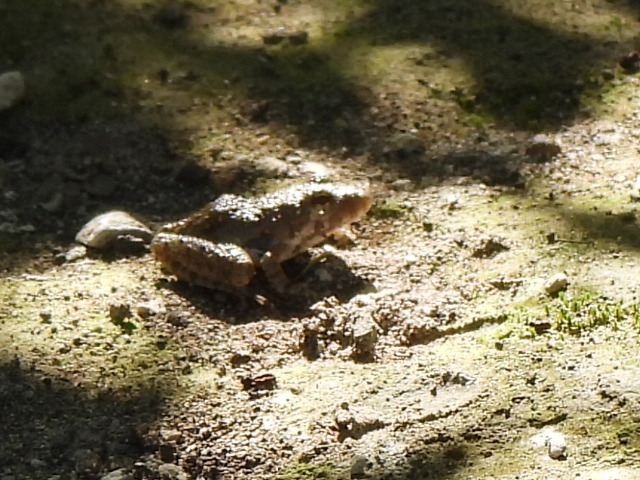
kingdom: Animalia
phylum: Chordata
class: Amphibia
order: Anura
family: Hylidae
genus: Acris
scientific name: Acris blanchardi
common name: Blanchard's cricket frog
